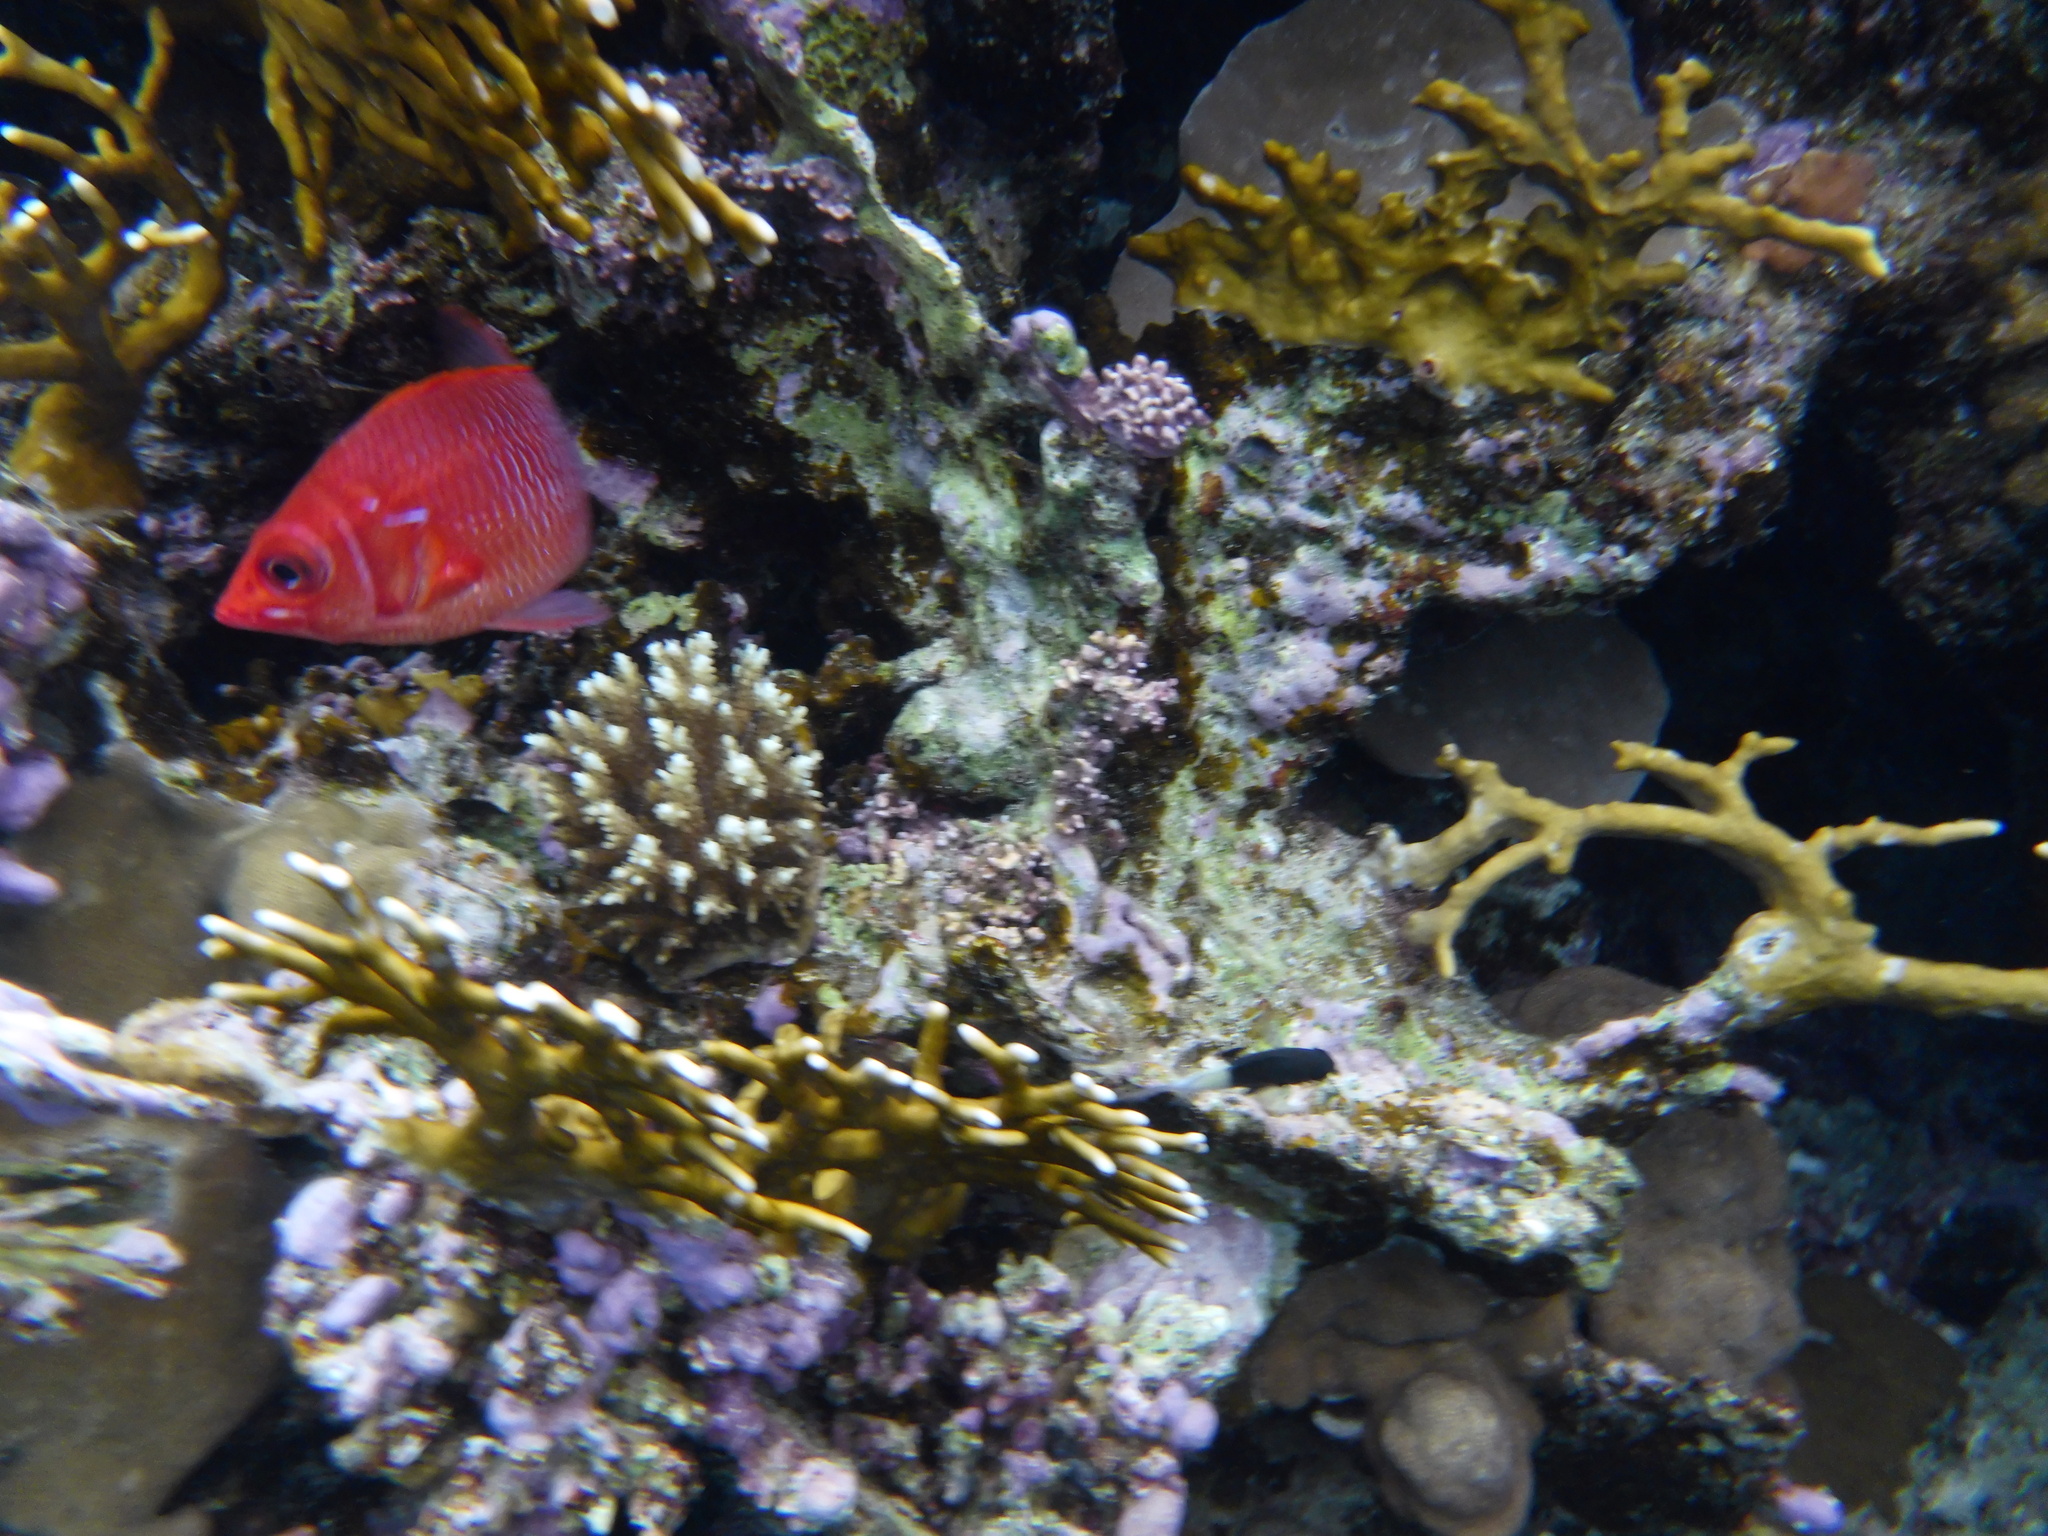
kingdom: Animalia
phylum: Chordata
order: Beryciformes
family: Holocentridae
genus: Sargocentron
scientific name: Sargocentron caudimaculatum
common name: Fanfin soldier
